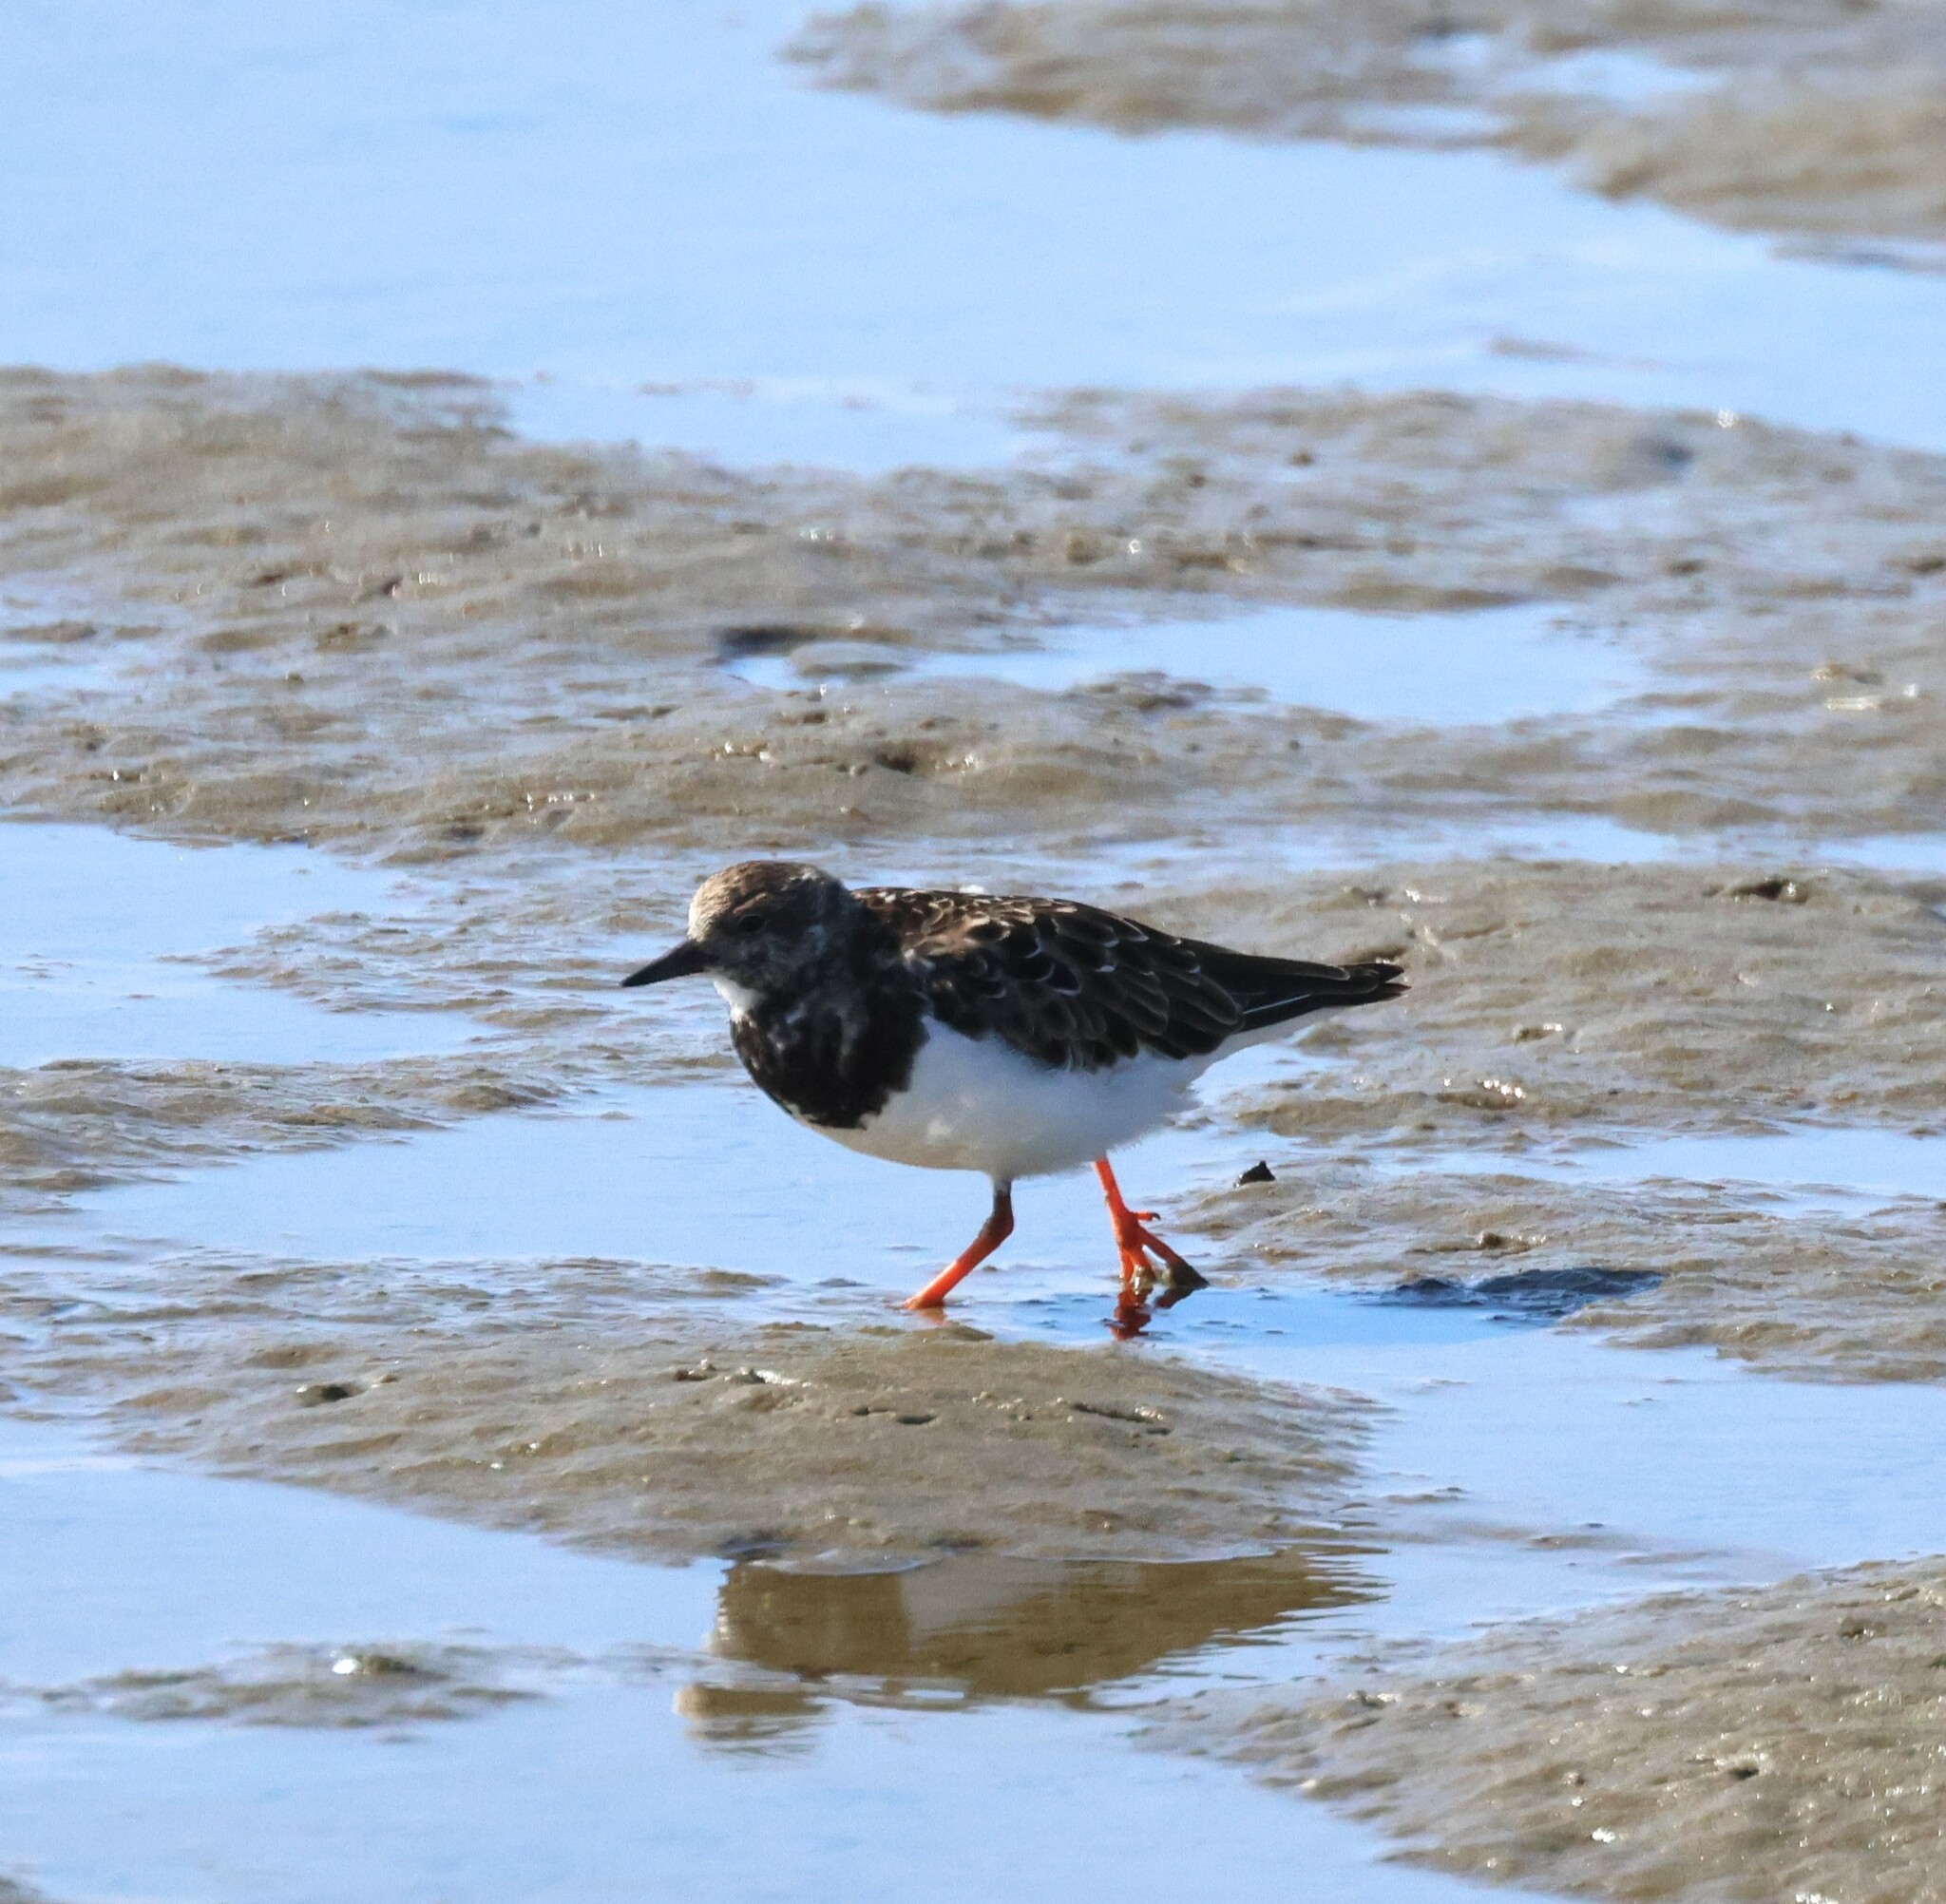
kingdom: Animalia
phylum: Chordata
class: Aves
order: Charadriiformes
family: Scolopacidae
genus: Arenaria
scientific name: Arenaria interpres
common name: Ruddy turnstone
